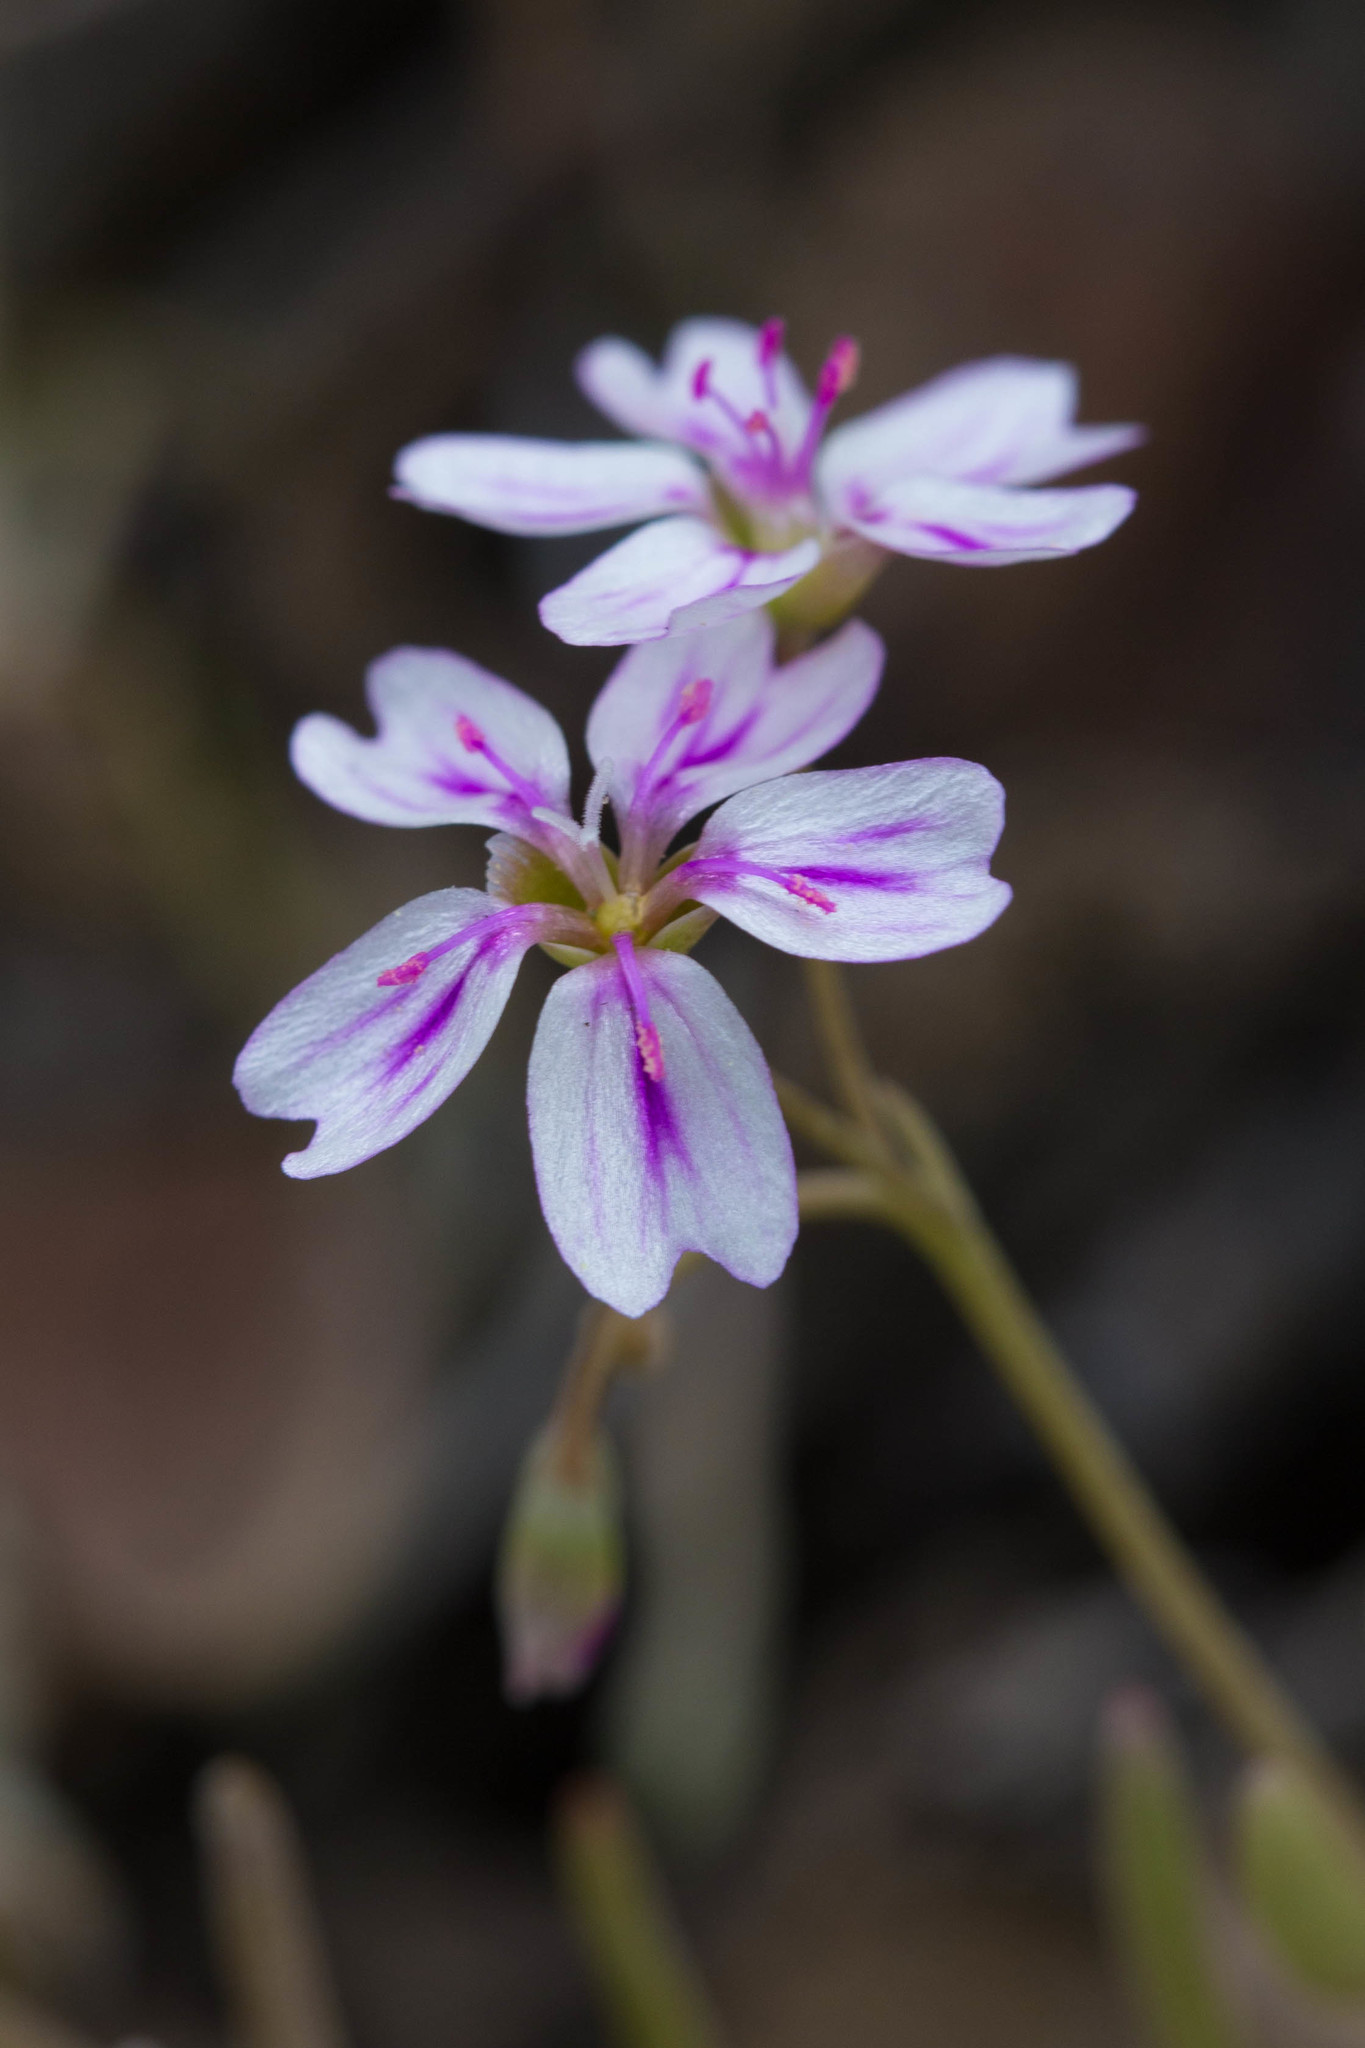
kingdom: Plantae
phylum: Tracheophyta
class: Magnoliopsida
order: Caryophyllales
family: Montiaceae
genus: Claytonia
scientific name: Claytonia gypsophiloides
